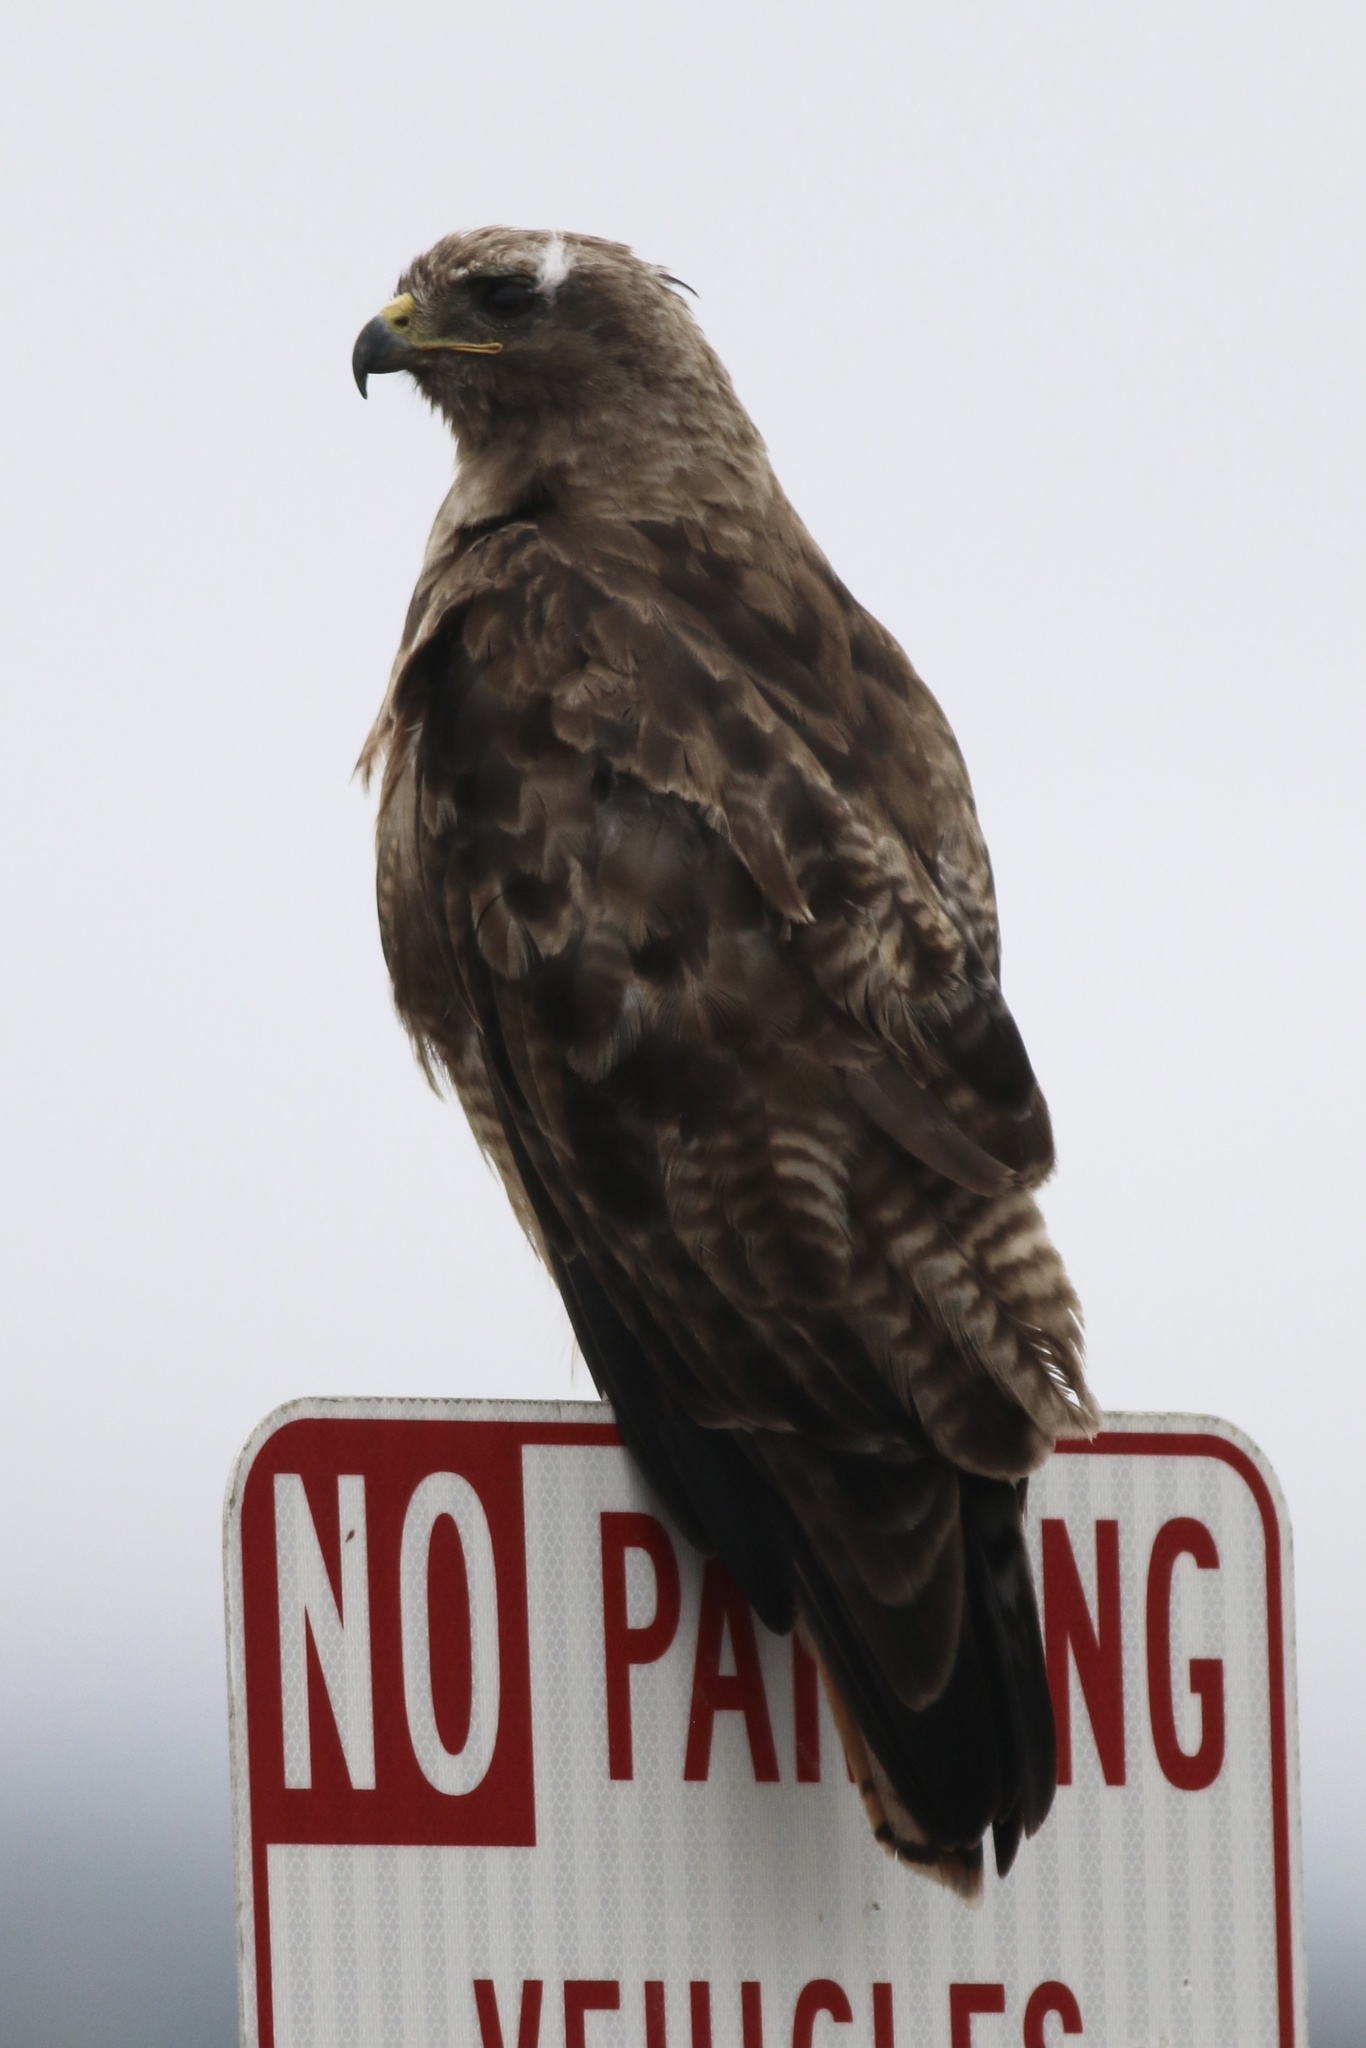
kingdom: Animalia
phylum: Chordata
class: Aves
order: Accipitriformes
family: Accipitridae
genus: Buteo
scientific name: Buteo jamaicensis
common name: Red-tailed hawk
